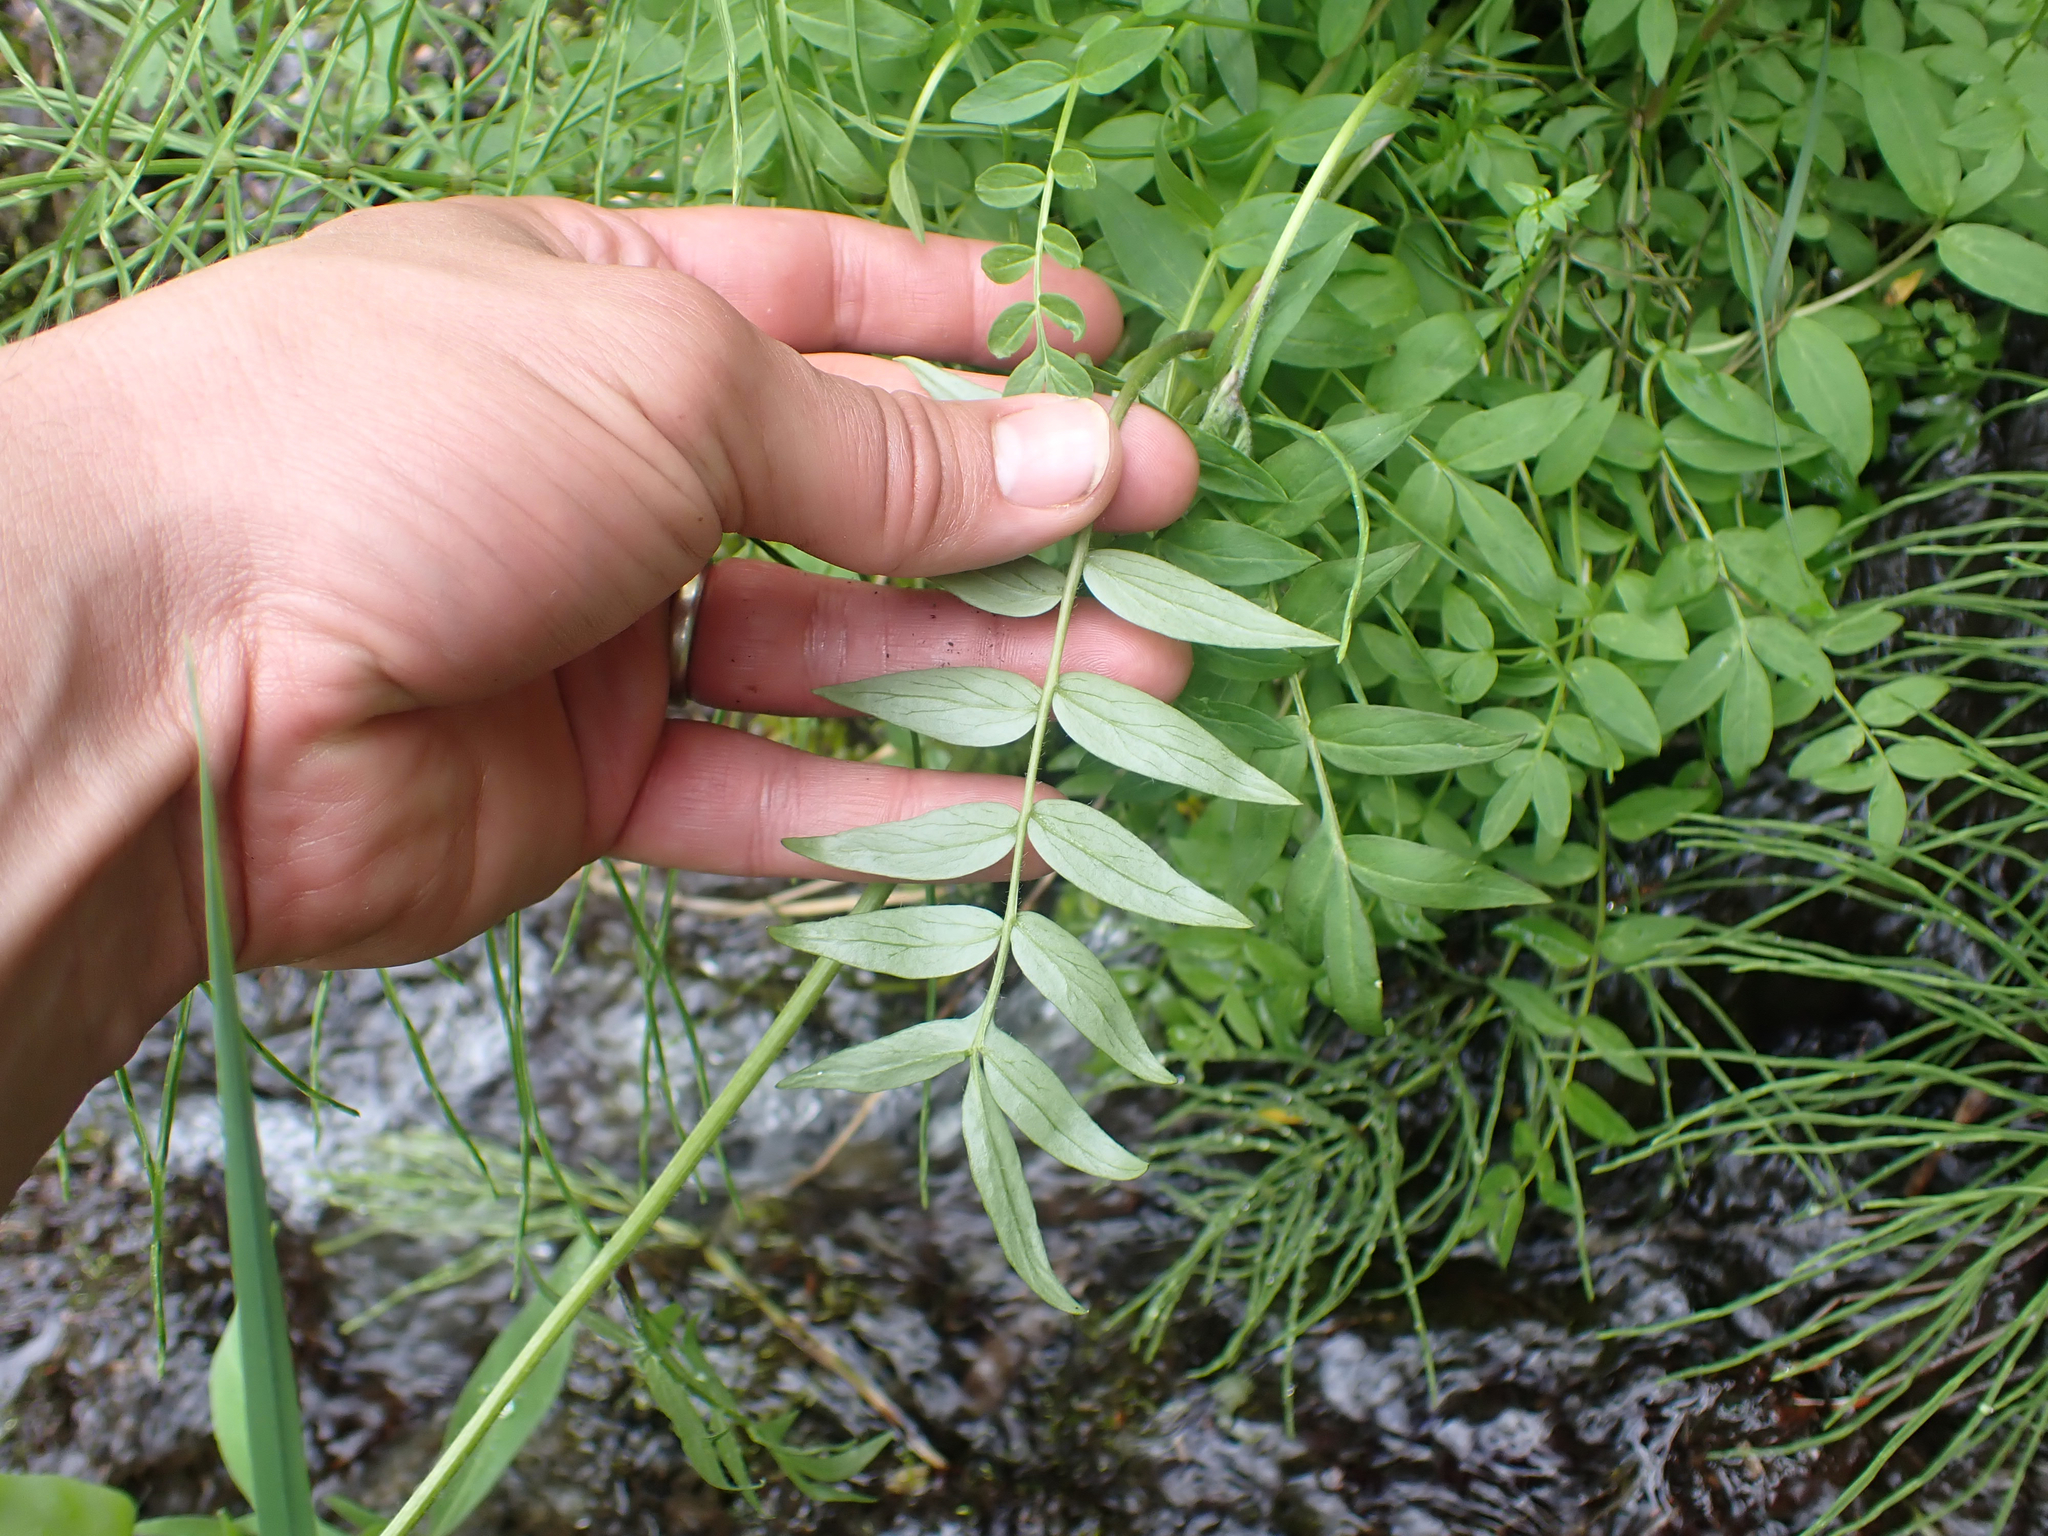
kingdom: Plantae
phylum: Tracheophyta
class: Magnoliopsida
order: Ericales
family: Polemoniaceae
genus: Polemonium
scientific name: Polemonium acutiflorum
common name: Tall jacob's-ladder
